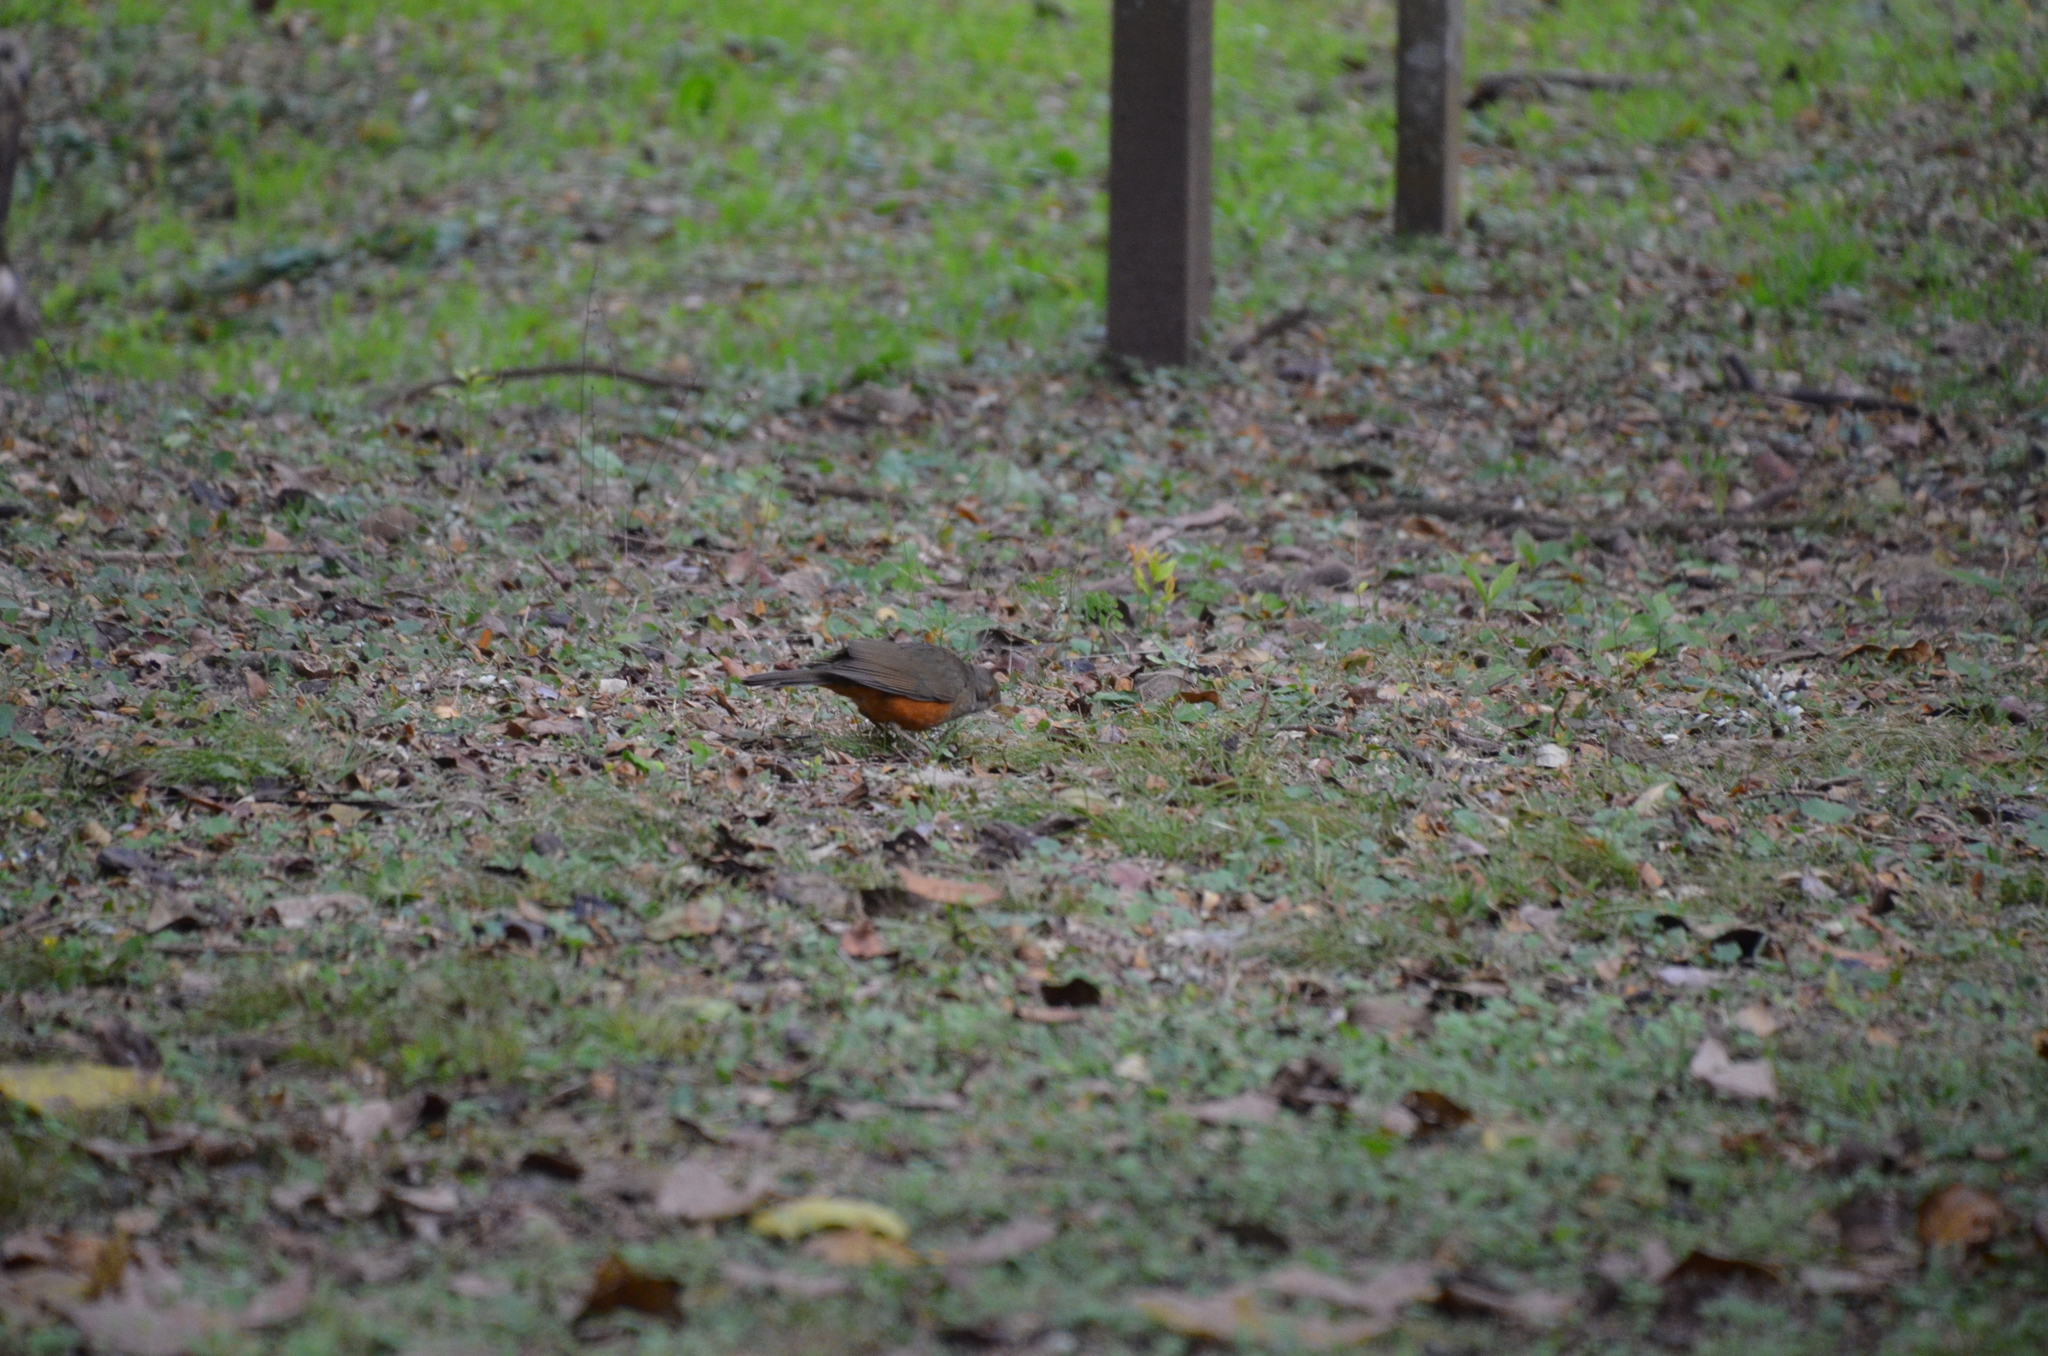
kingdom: Animalia
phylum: Chordata
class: Aves
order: Passeriformes
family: Turdidae
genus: Turdus
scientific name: Turdus rufiventris
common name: Rufous-bellied thrush
